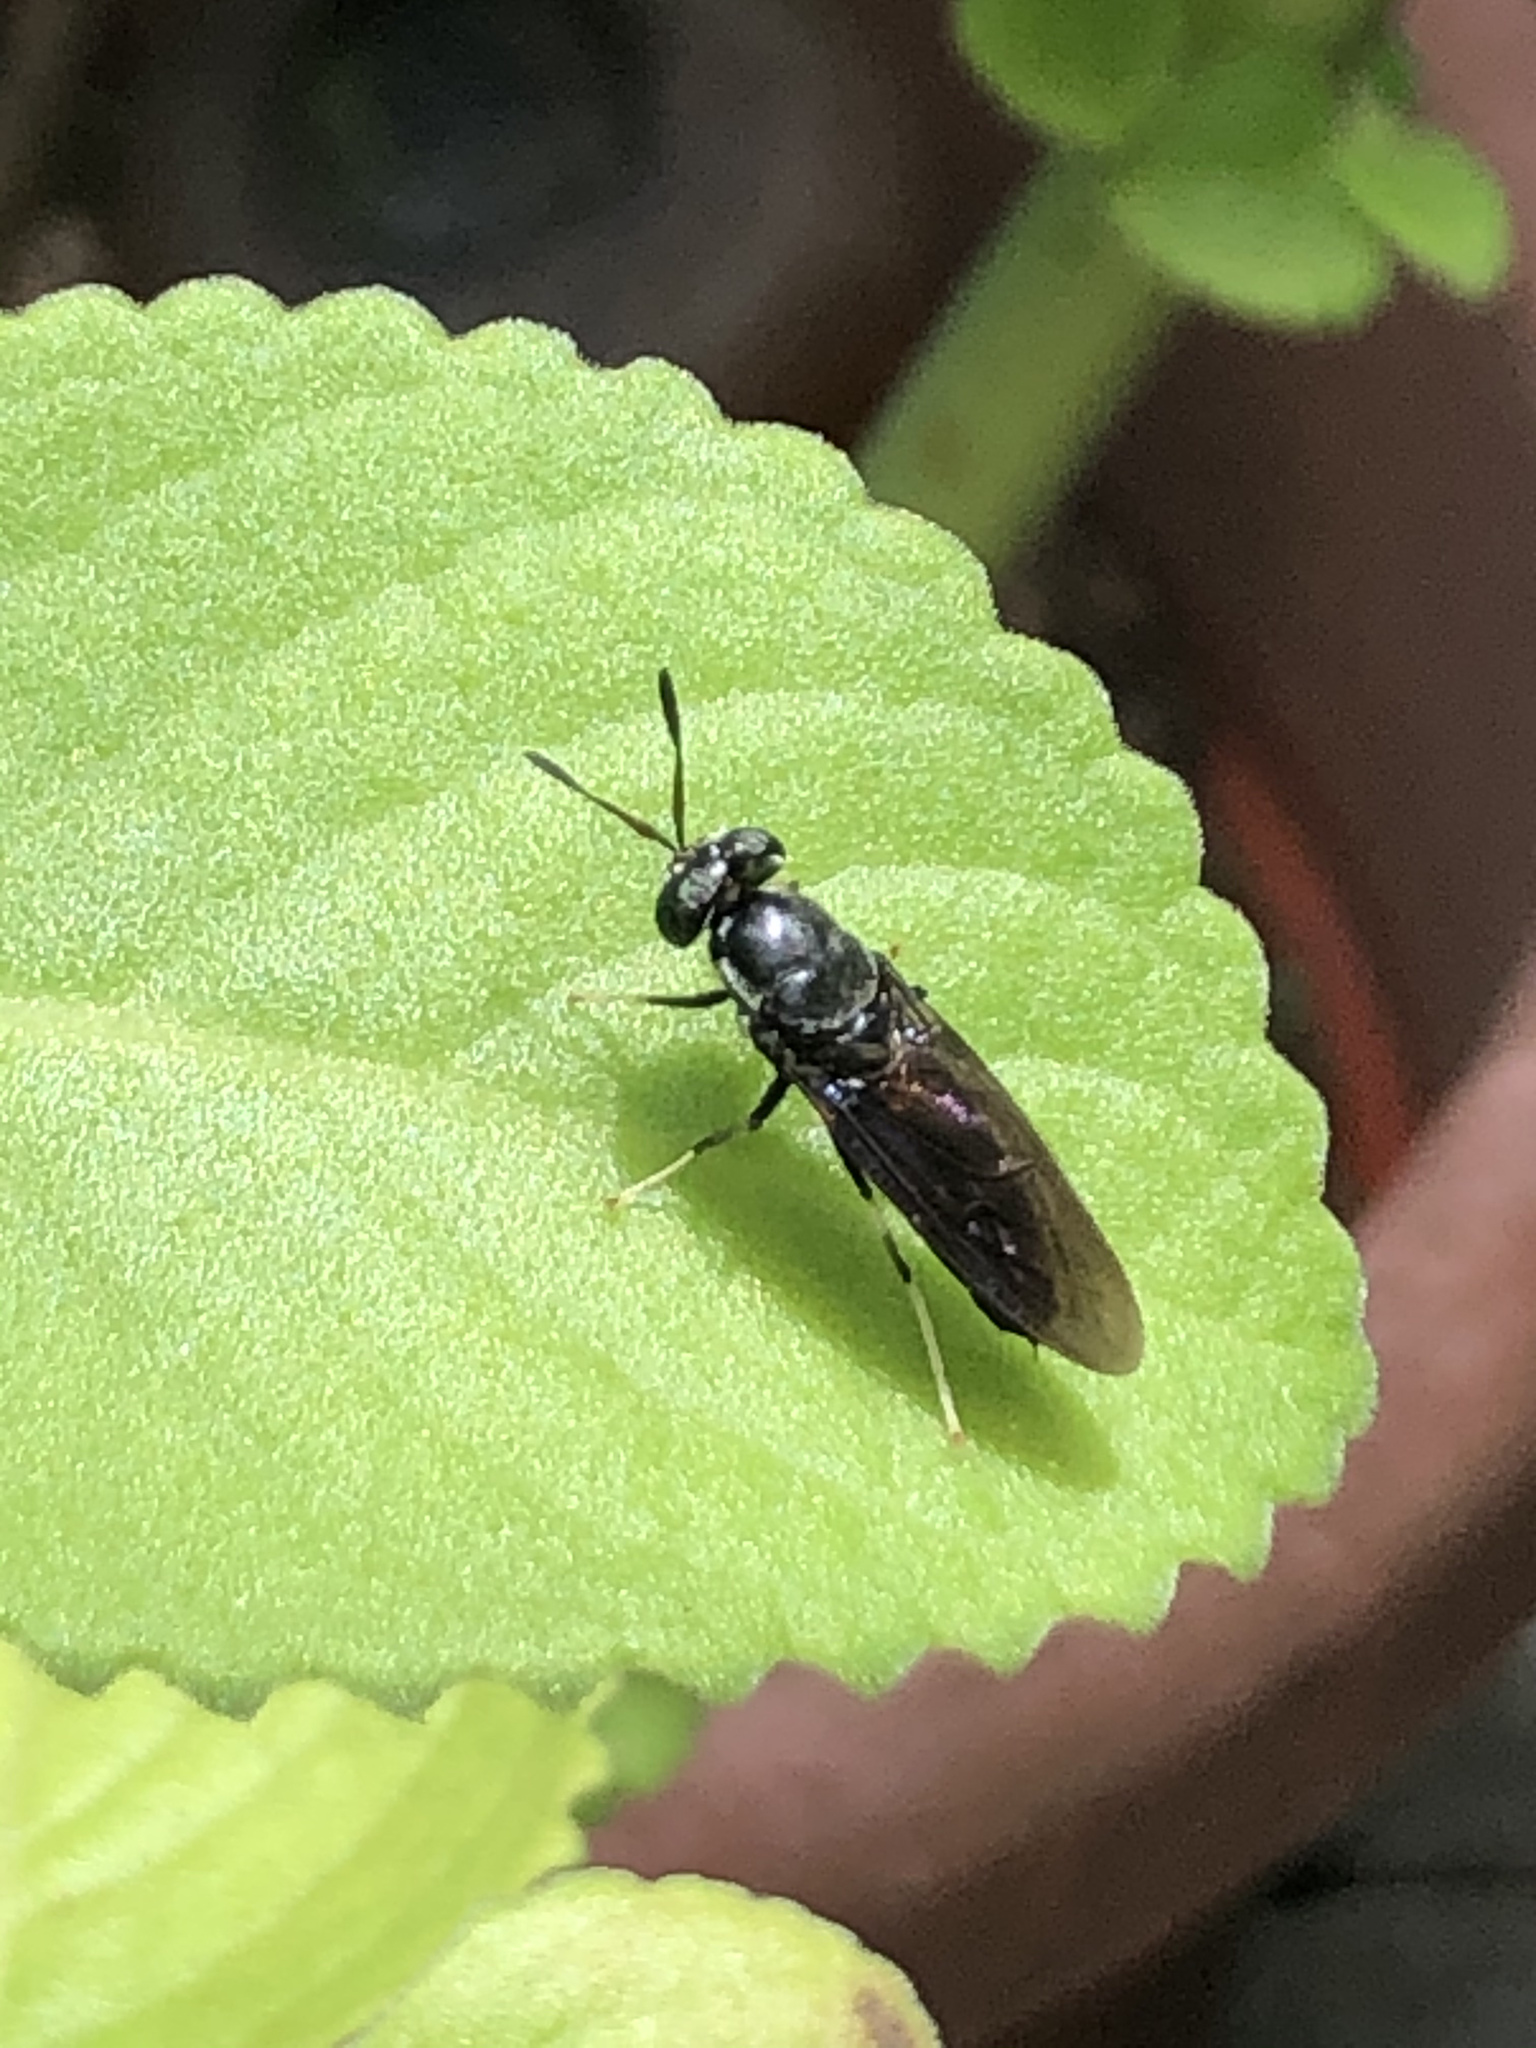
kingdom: Animalia
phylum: Arthropoda
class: Insecta
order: Diptera
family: Stratiomyidae
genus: Hermetia
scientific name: Hermetia illucens
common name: Black soldier fly
